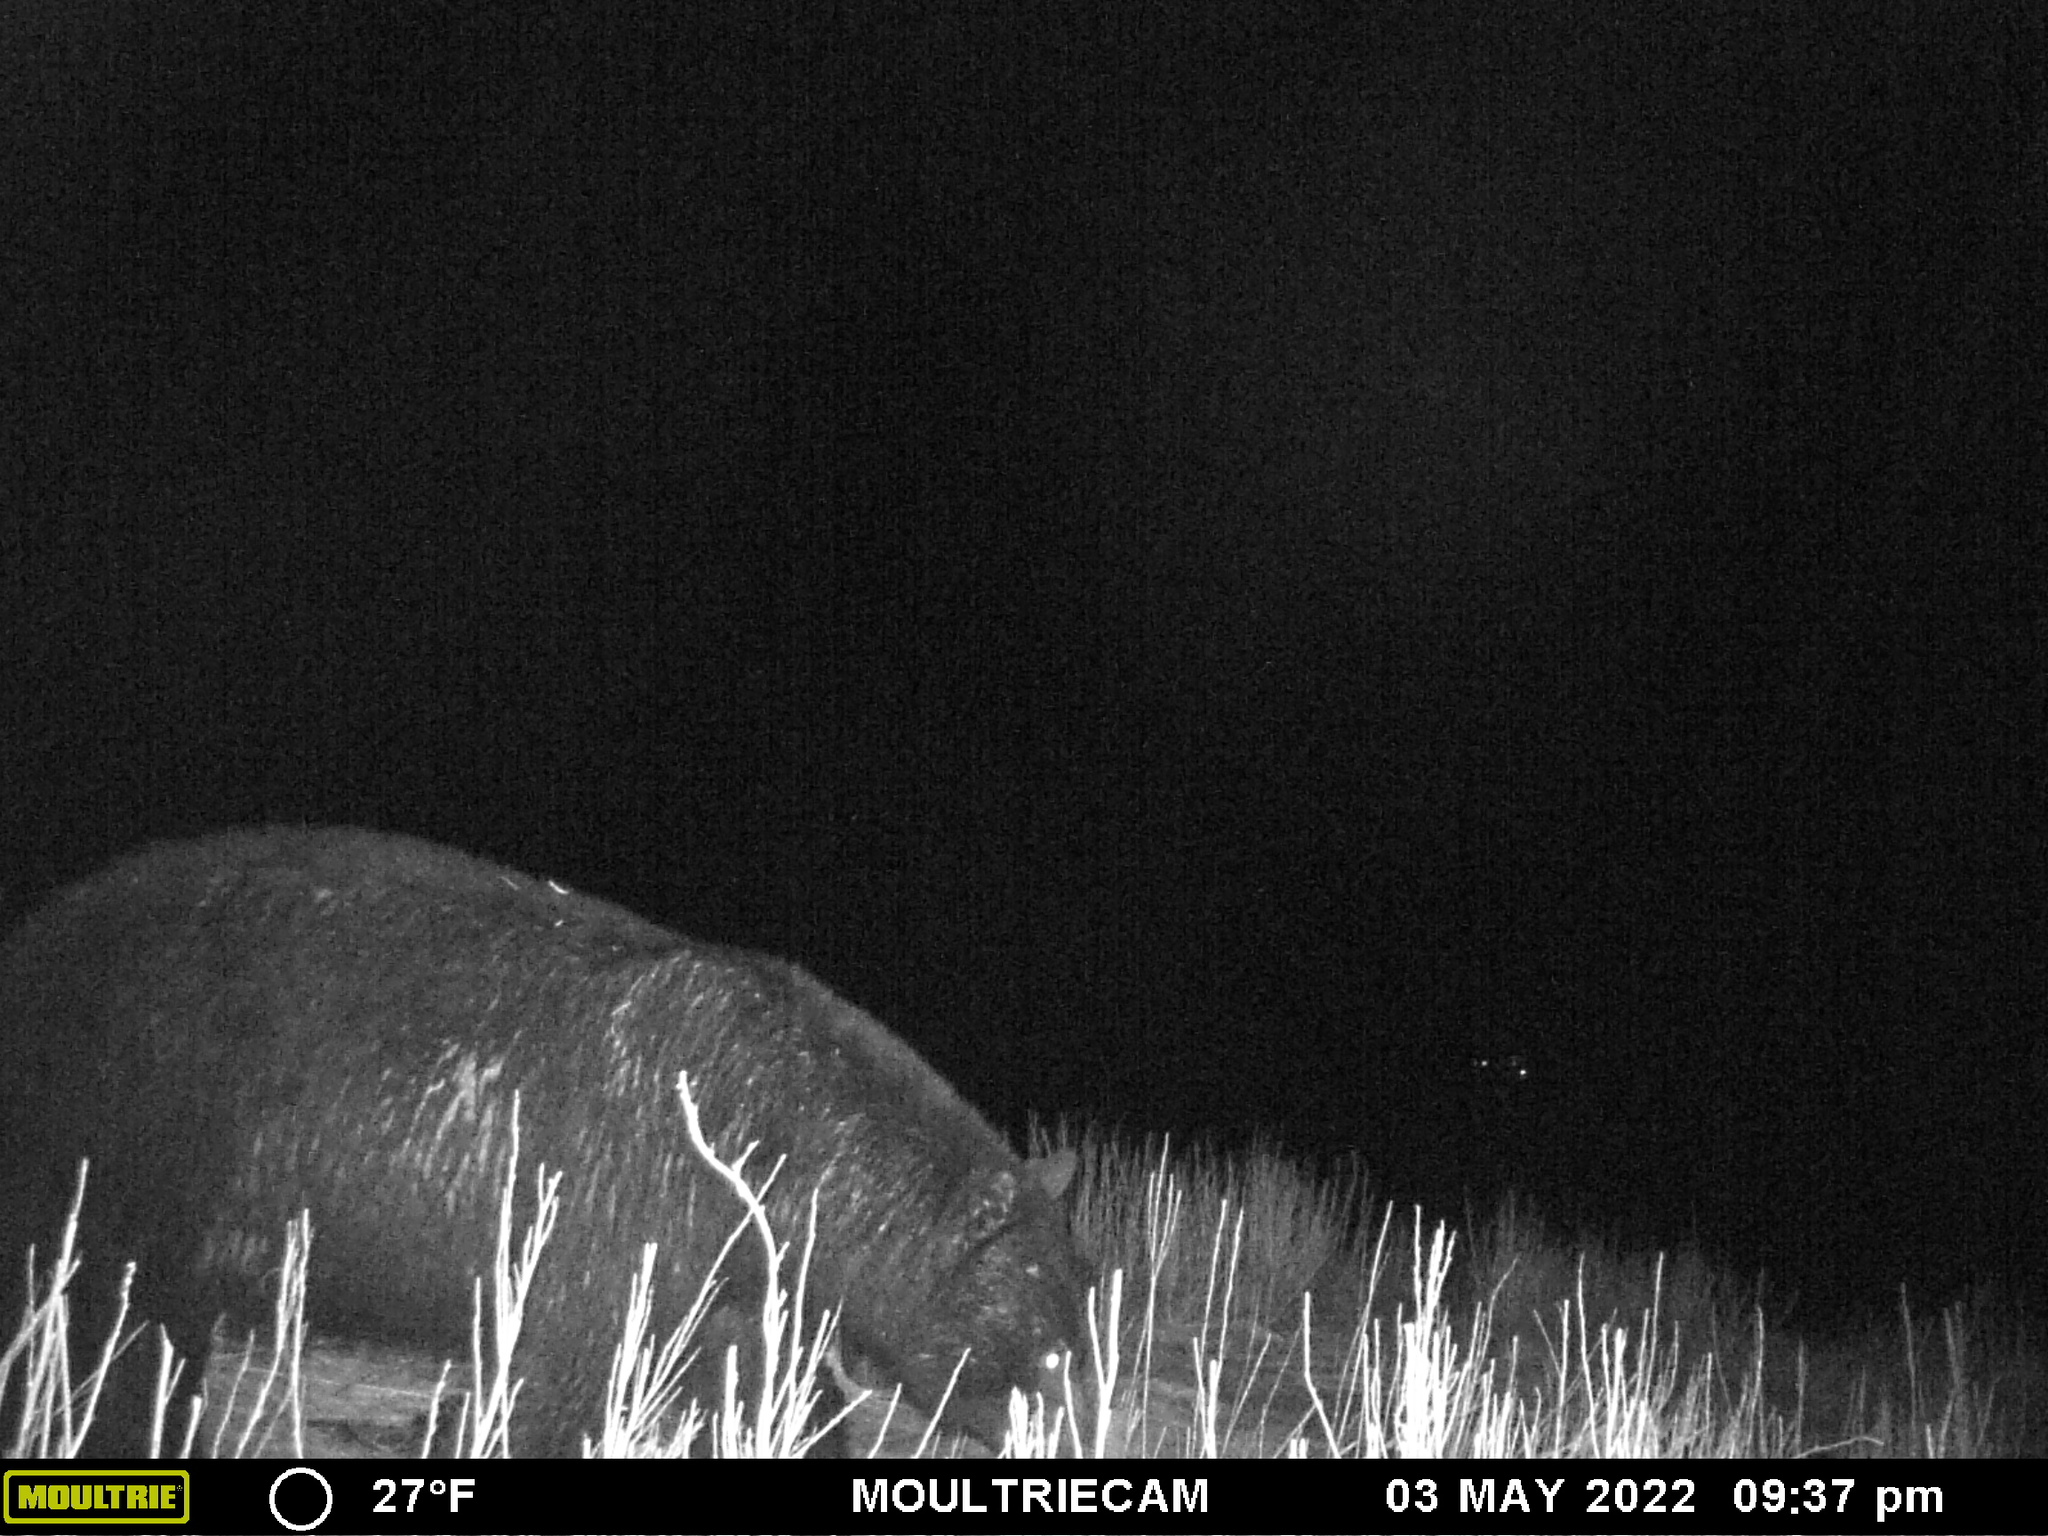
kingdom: Animalia
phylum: Chordata
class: Mammalia
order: Carnivora
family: Ursidae
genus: Ursus
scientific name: Ursus americanus
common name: American black bear
